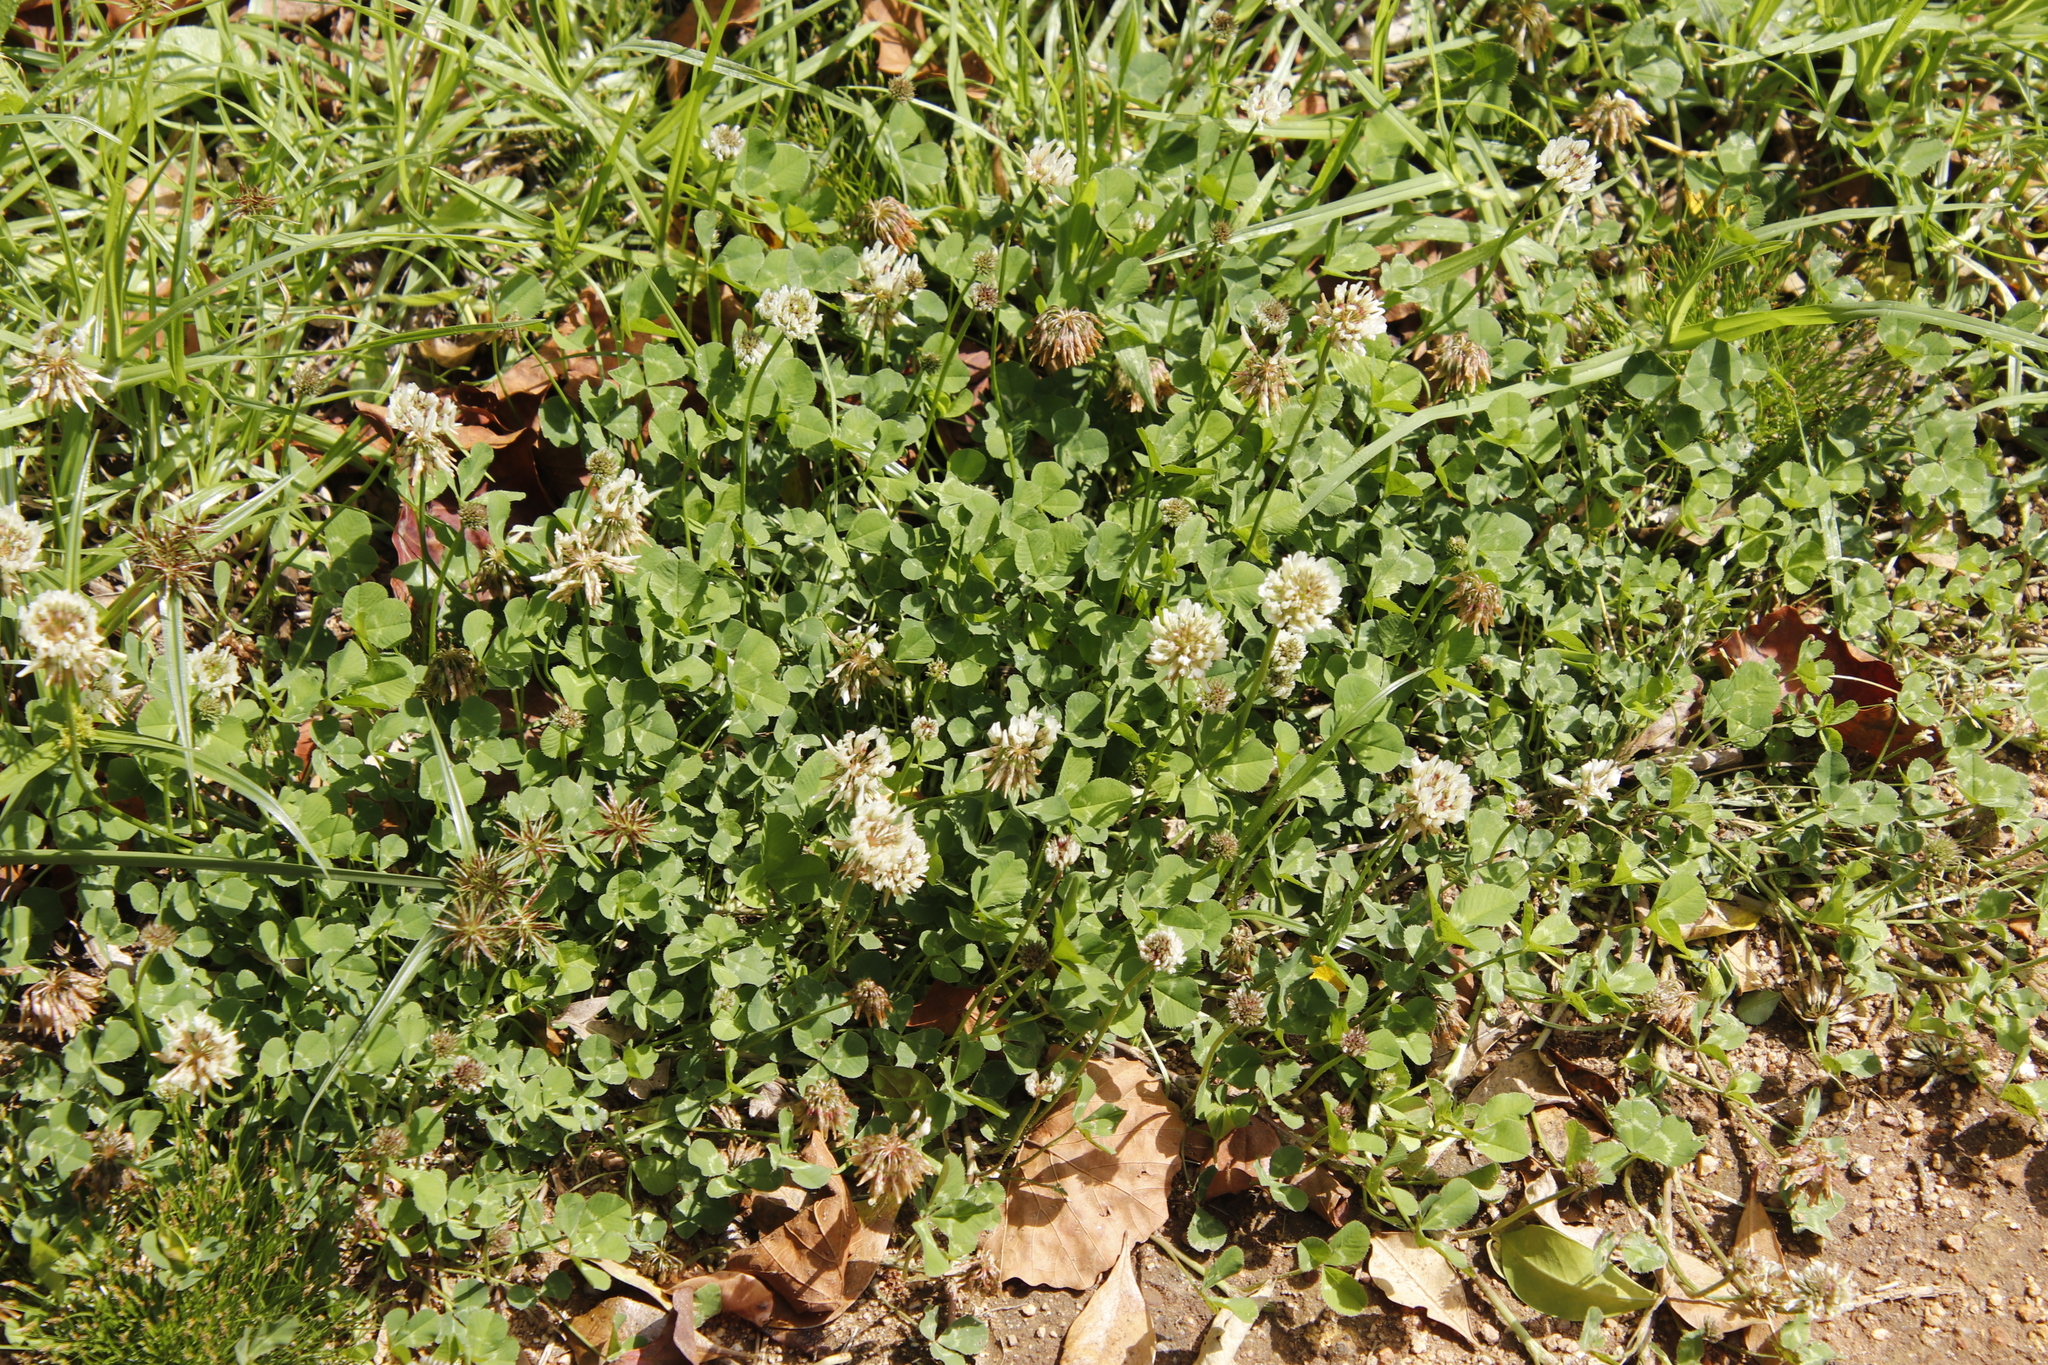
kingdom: Plantae
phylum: Tracheophyta
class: Magnoliopsida
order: Fabales
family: Fabaceae
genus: Trifolium
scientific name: Trifolium repens
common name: White clover
